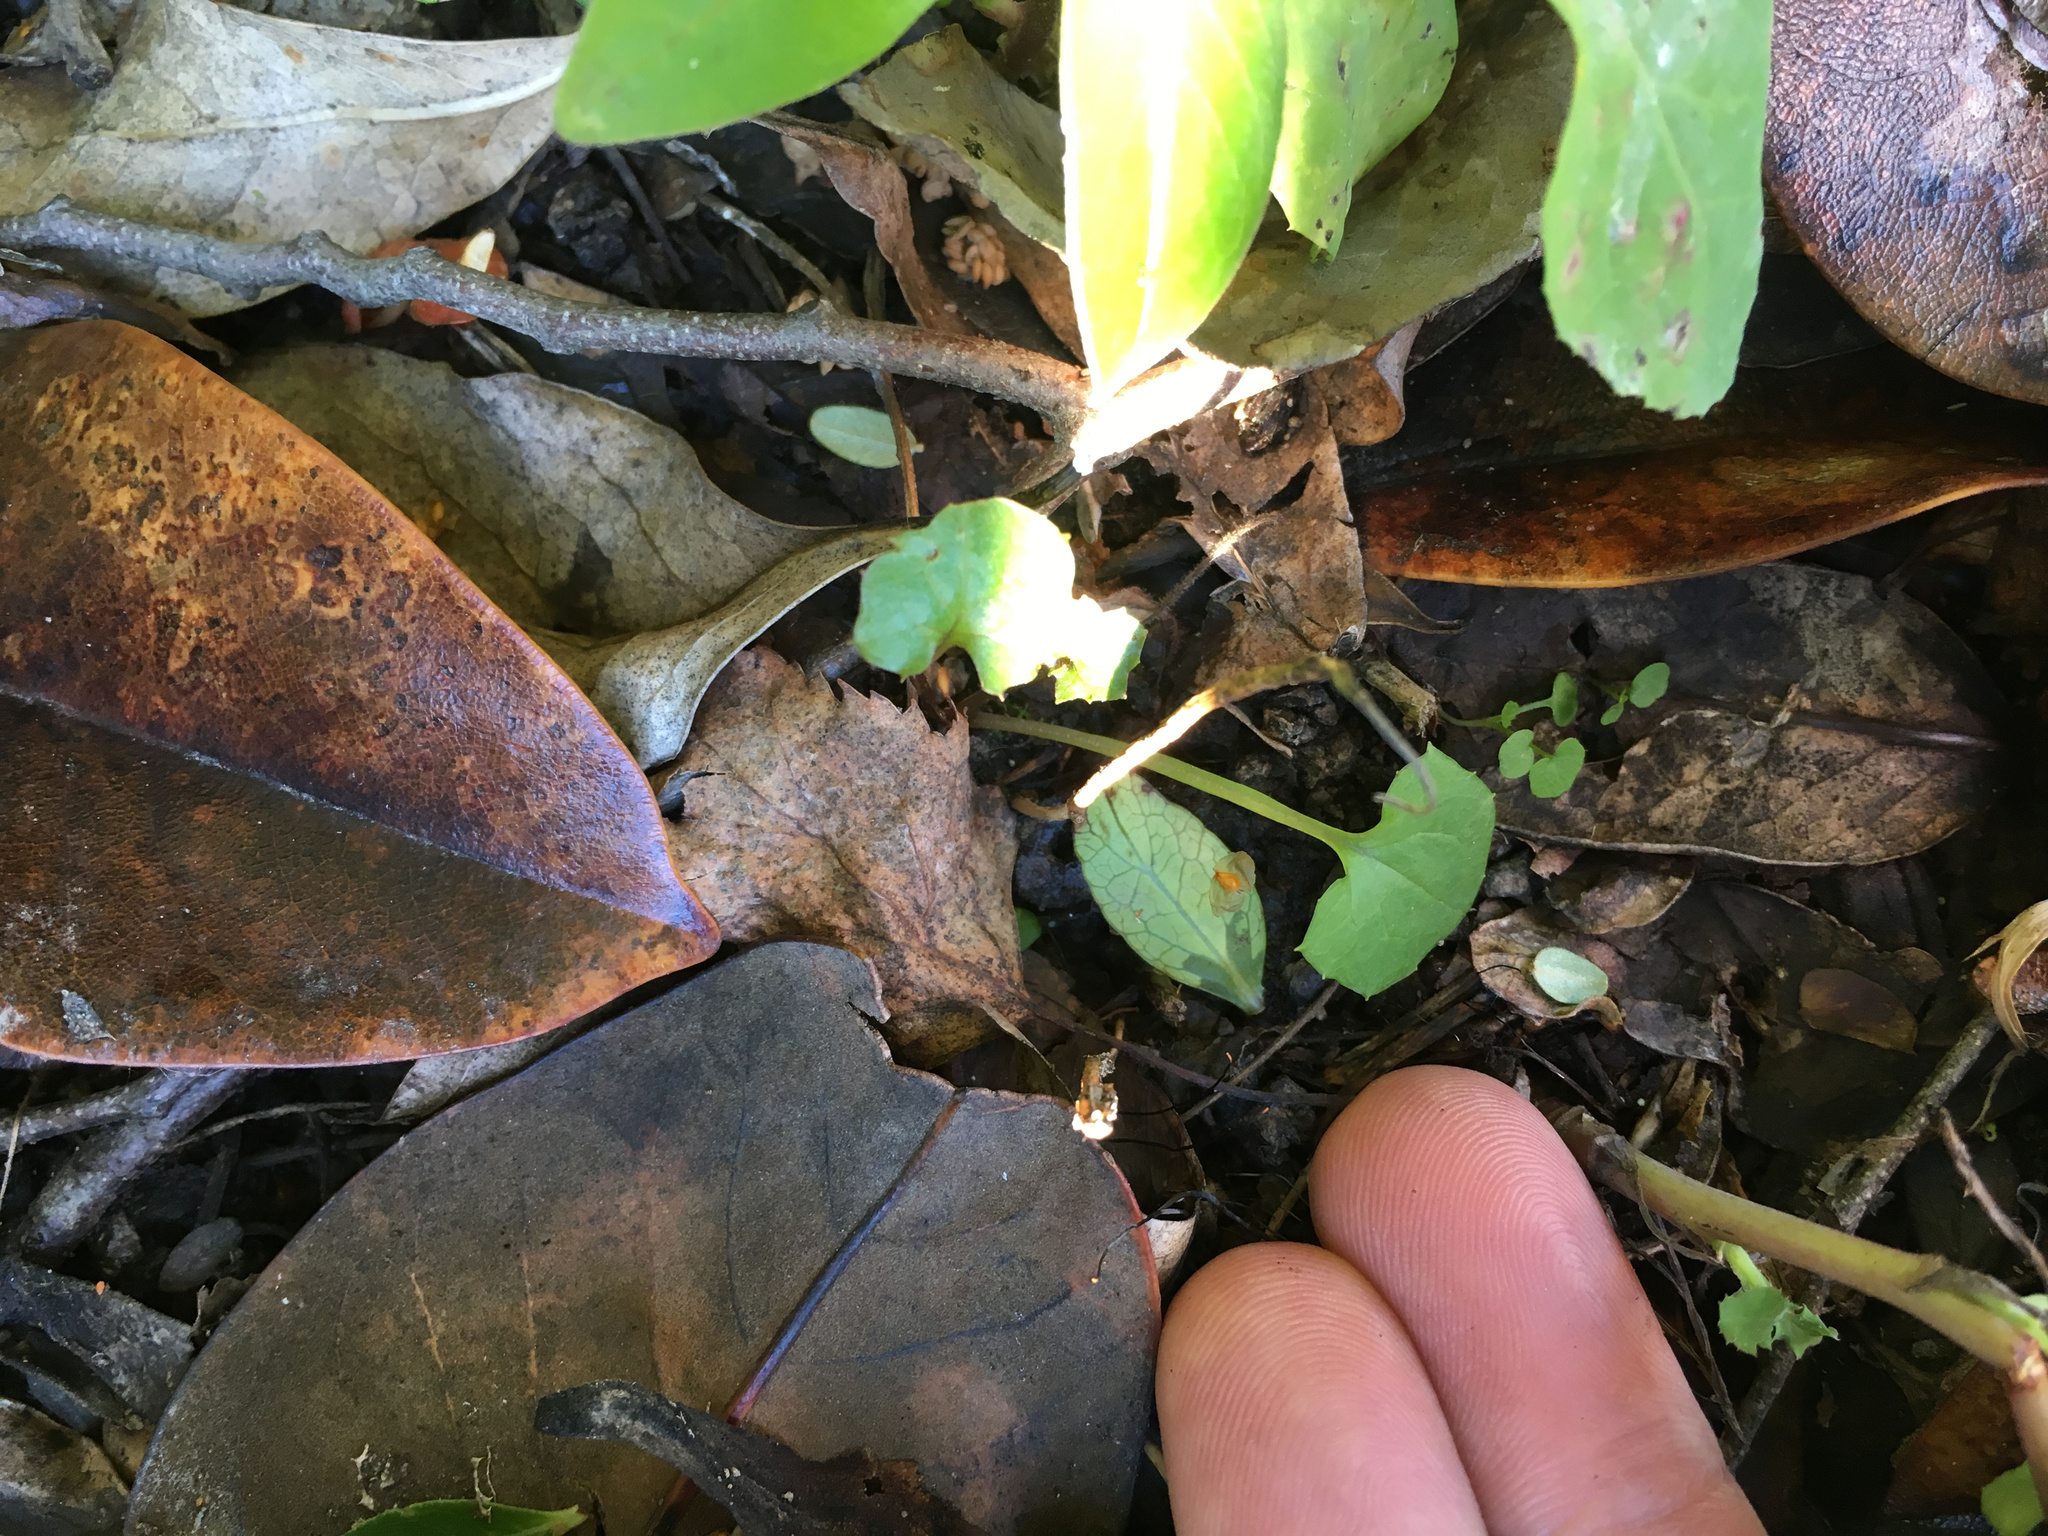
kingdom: Plantae
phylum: Tracheophyta
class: Magnoliopsida
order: Asterales
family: Asteraceae
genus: Mycelis
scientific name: Mycelis muralis
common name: Wall lettuce
